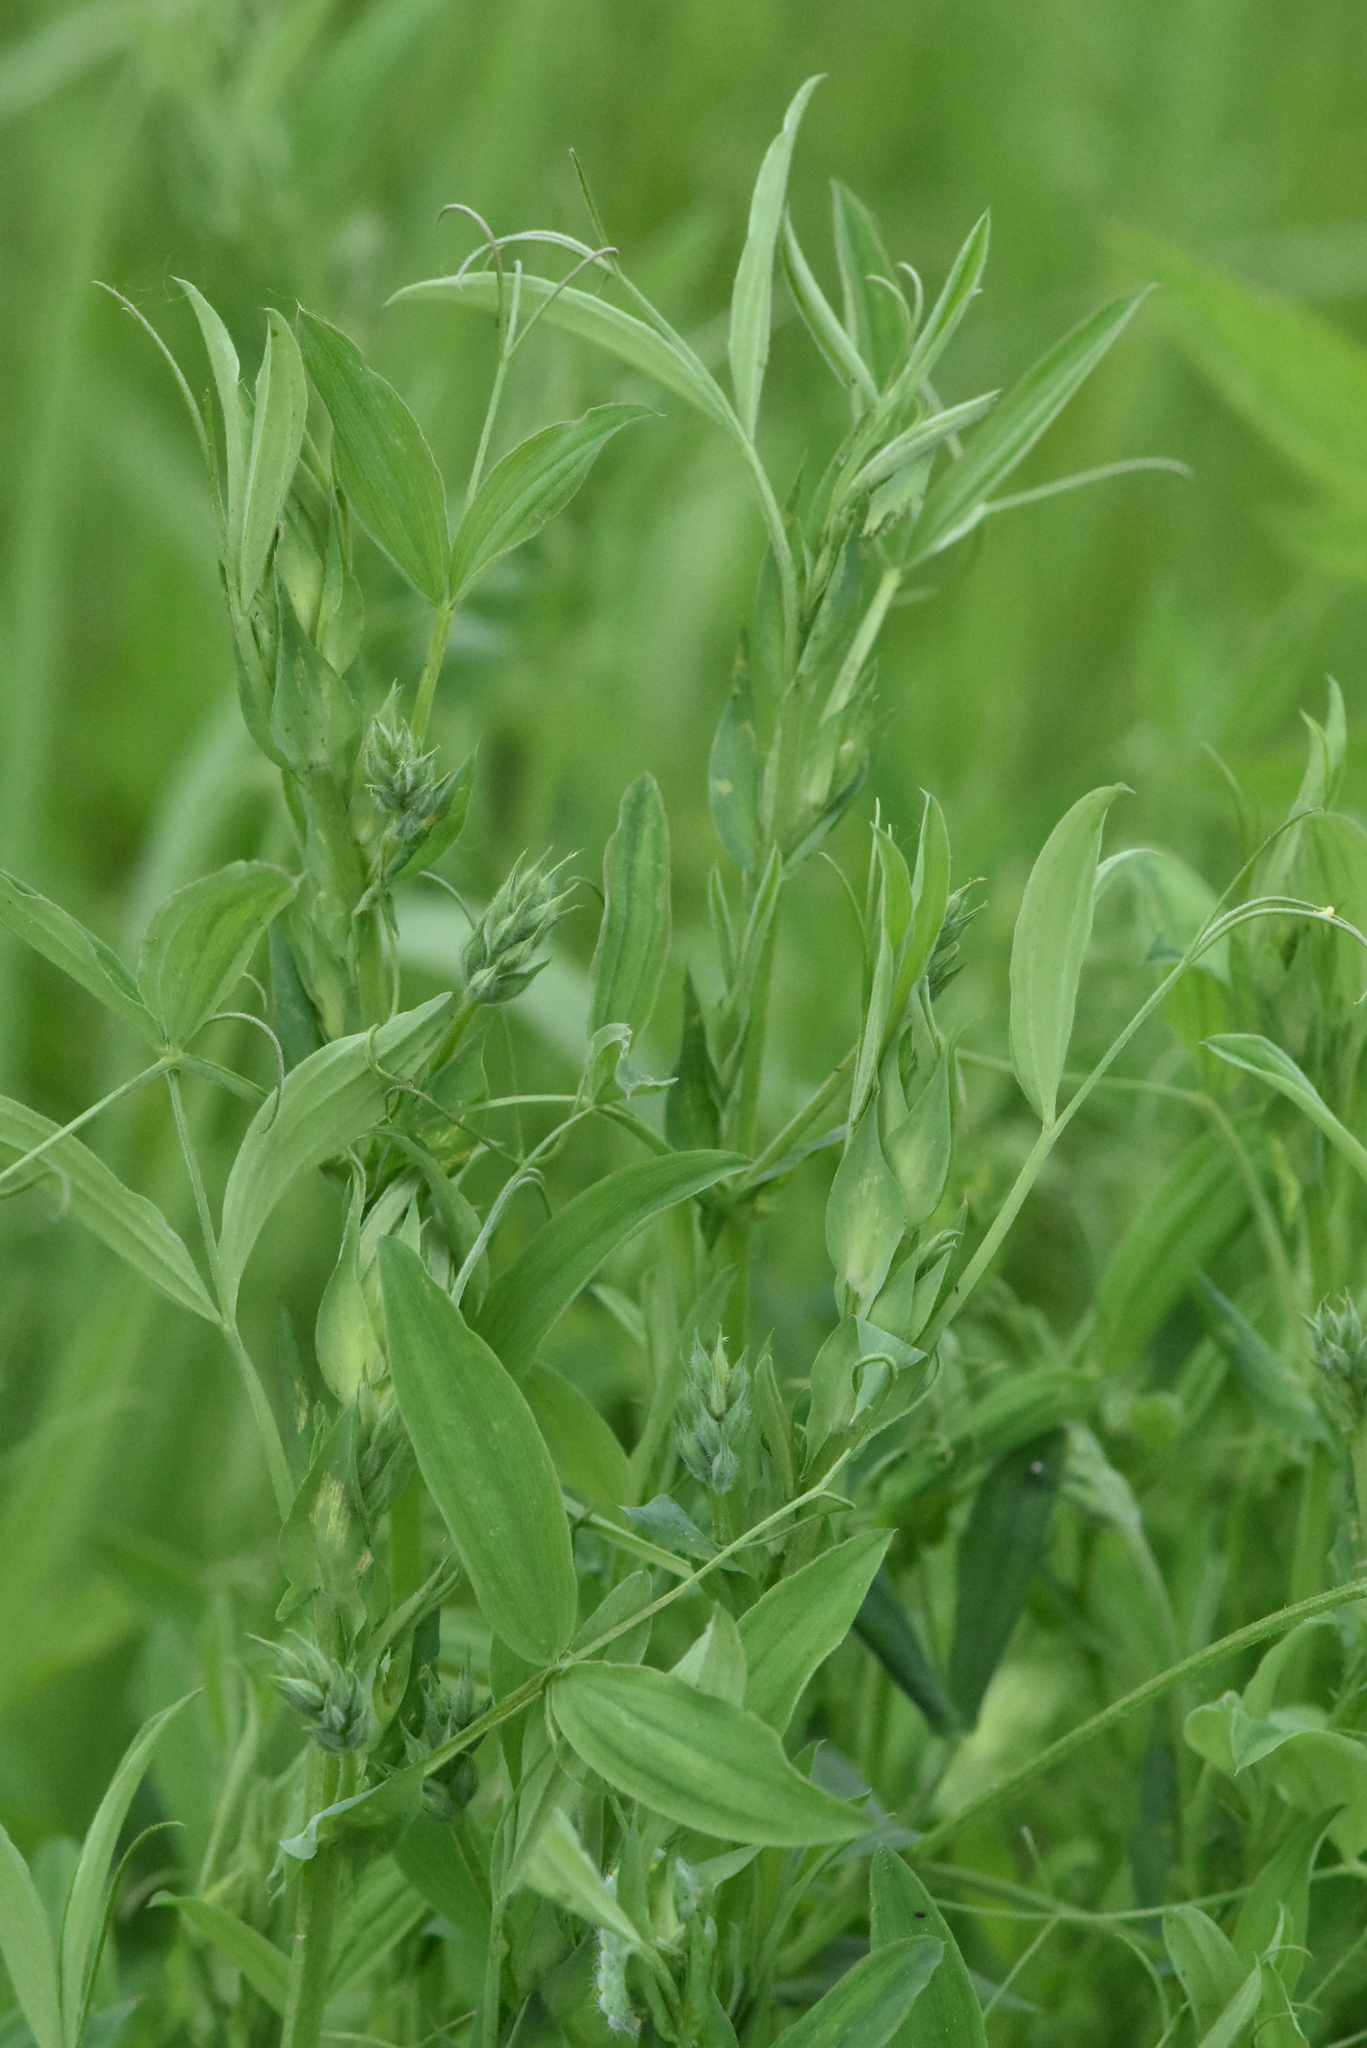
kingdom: Plantae
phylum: Tracheophyta
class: Magnoliopsida
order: Fabales
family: Fabaceae
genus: Lathyrus
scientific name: Lathyrus pratensis
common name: Meadow vetchling
